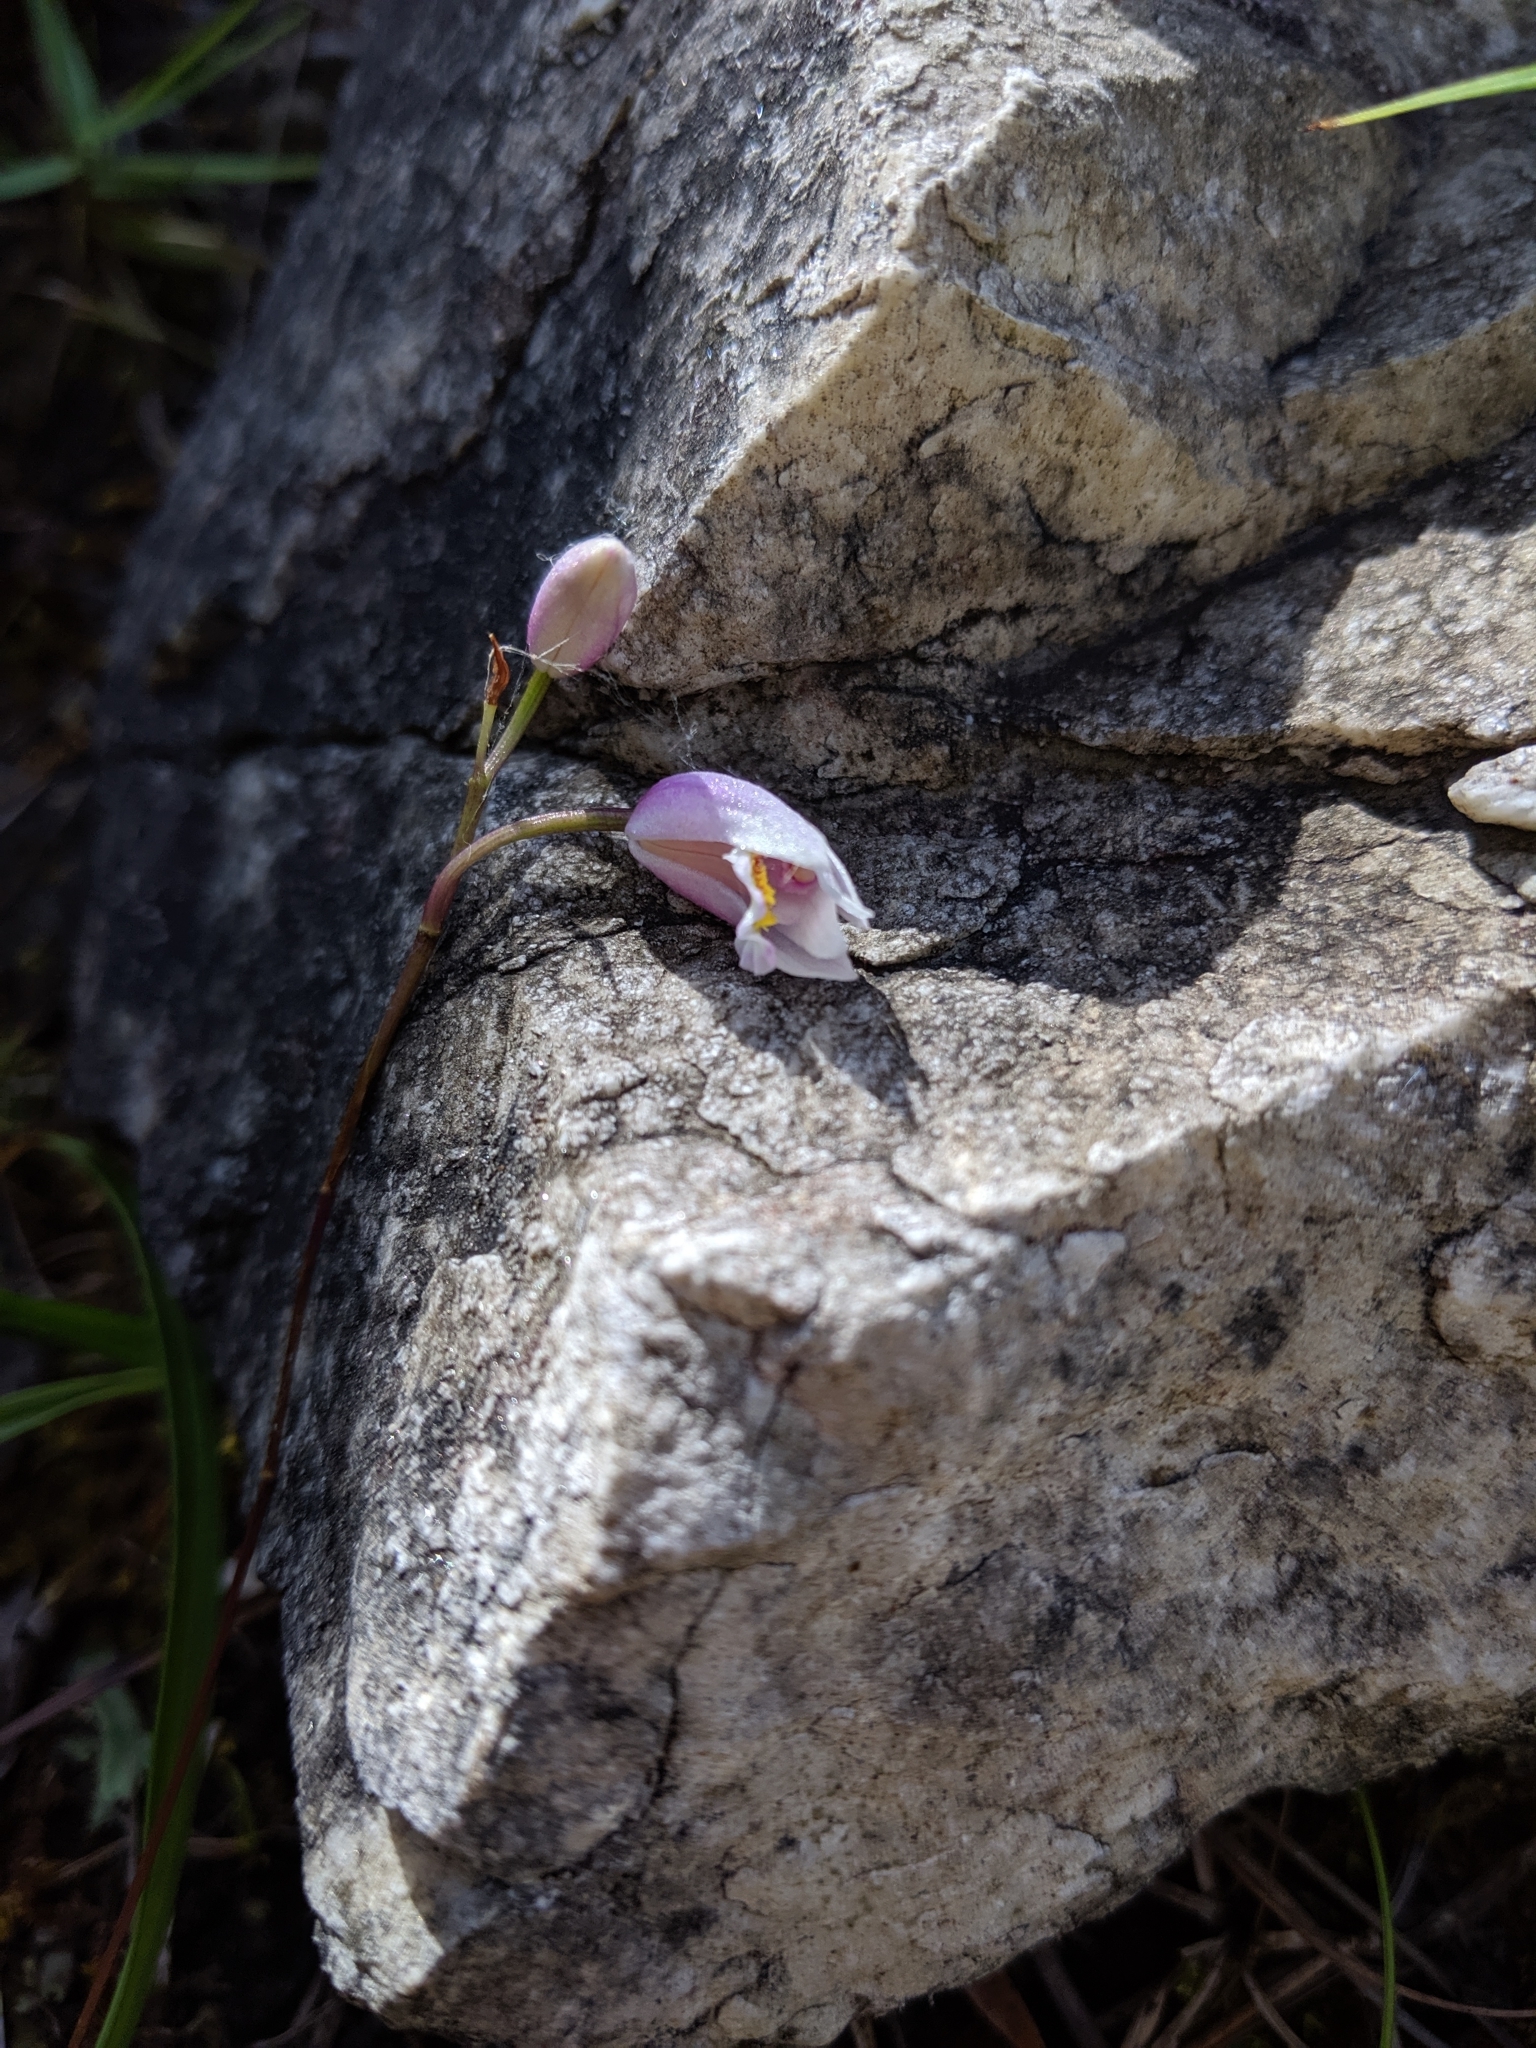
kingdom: Plantae
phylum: Tracheophyta
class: Liliopsida
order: Asparagales
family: Orchidaceae
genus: Bletilla
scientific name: Bletilla formosana
